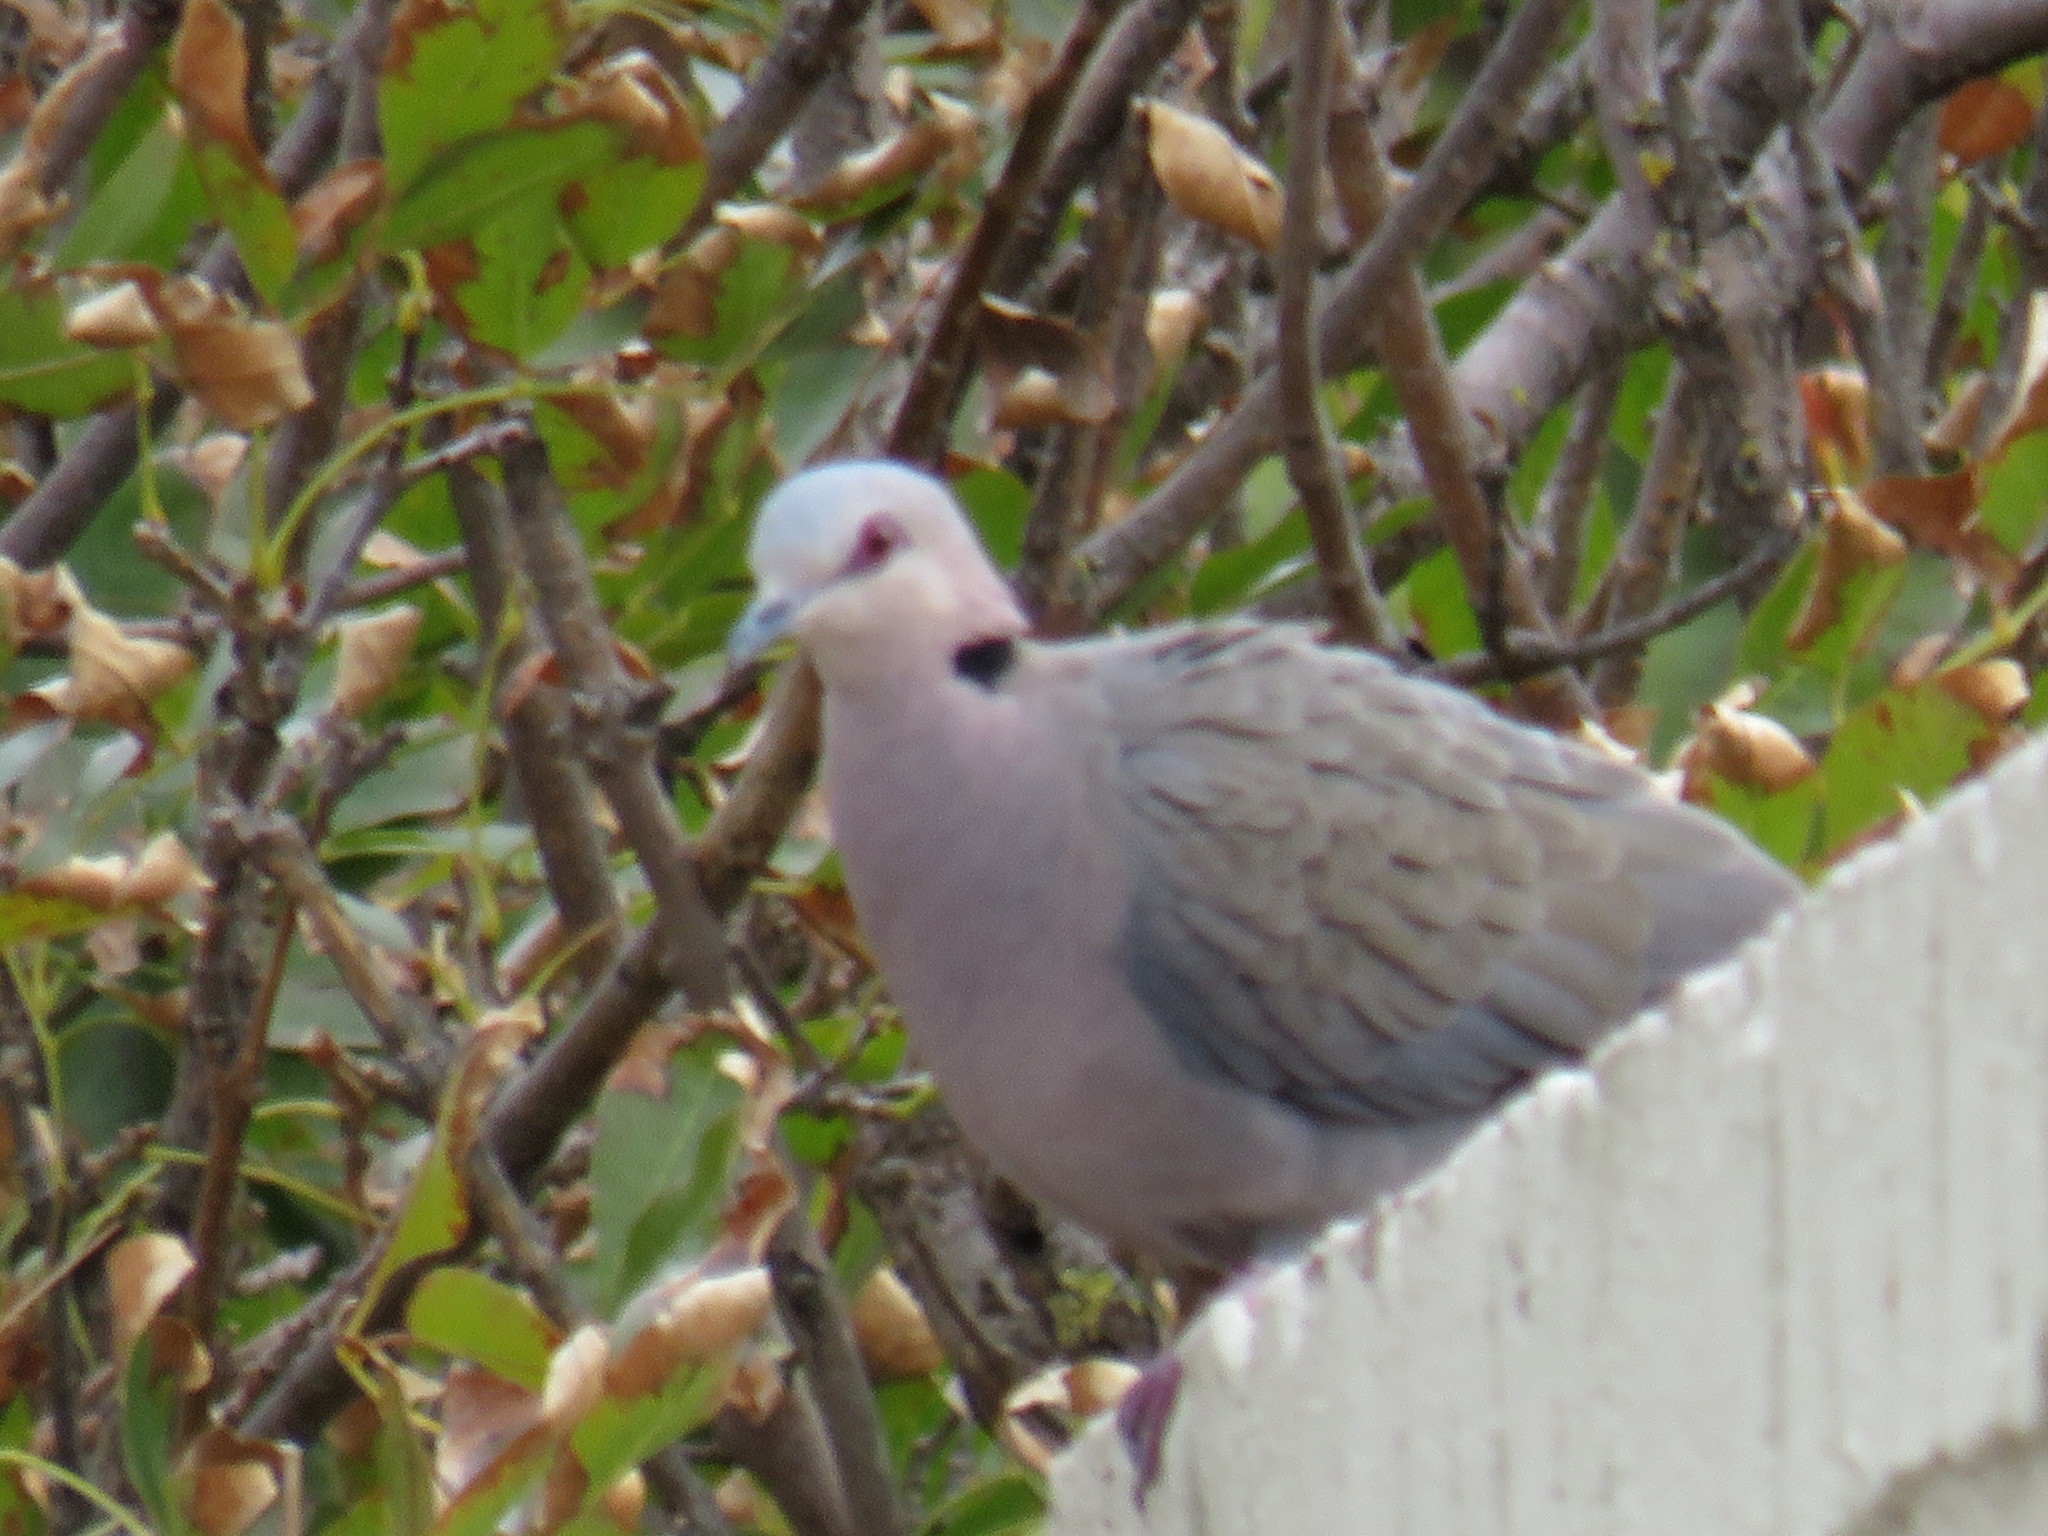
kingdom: Animalia
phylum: Chordata
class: Aves
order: Columbiformes
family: Columbidae
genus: Streptopelia
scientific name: Streptopelia semitorquata
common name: Red-eyed dove
